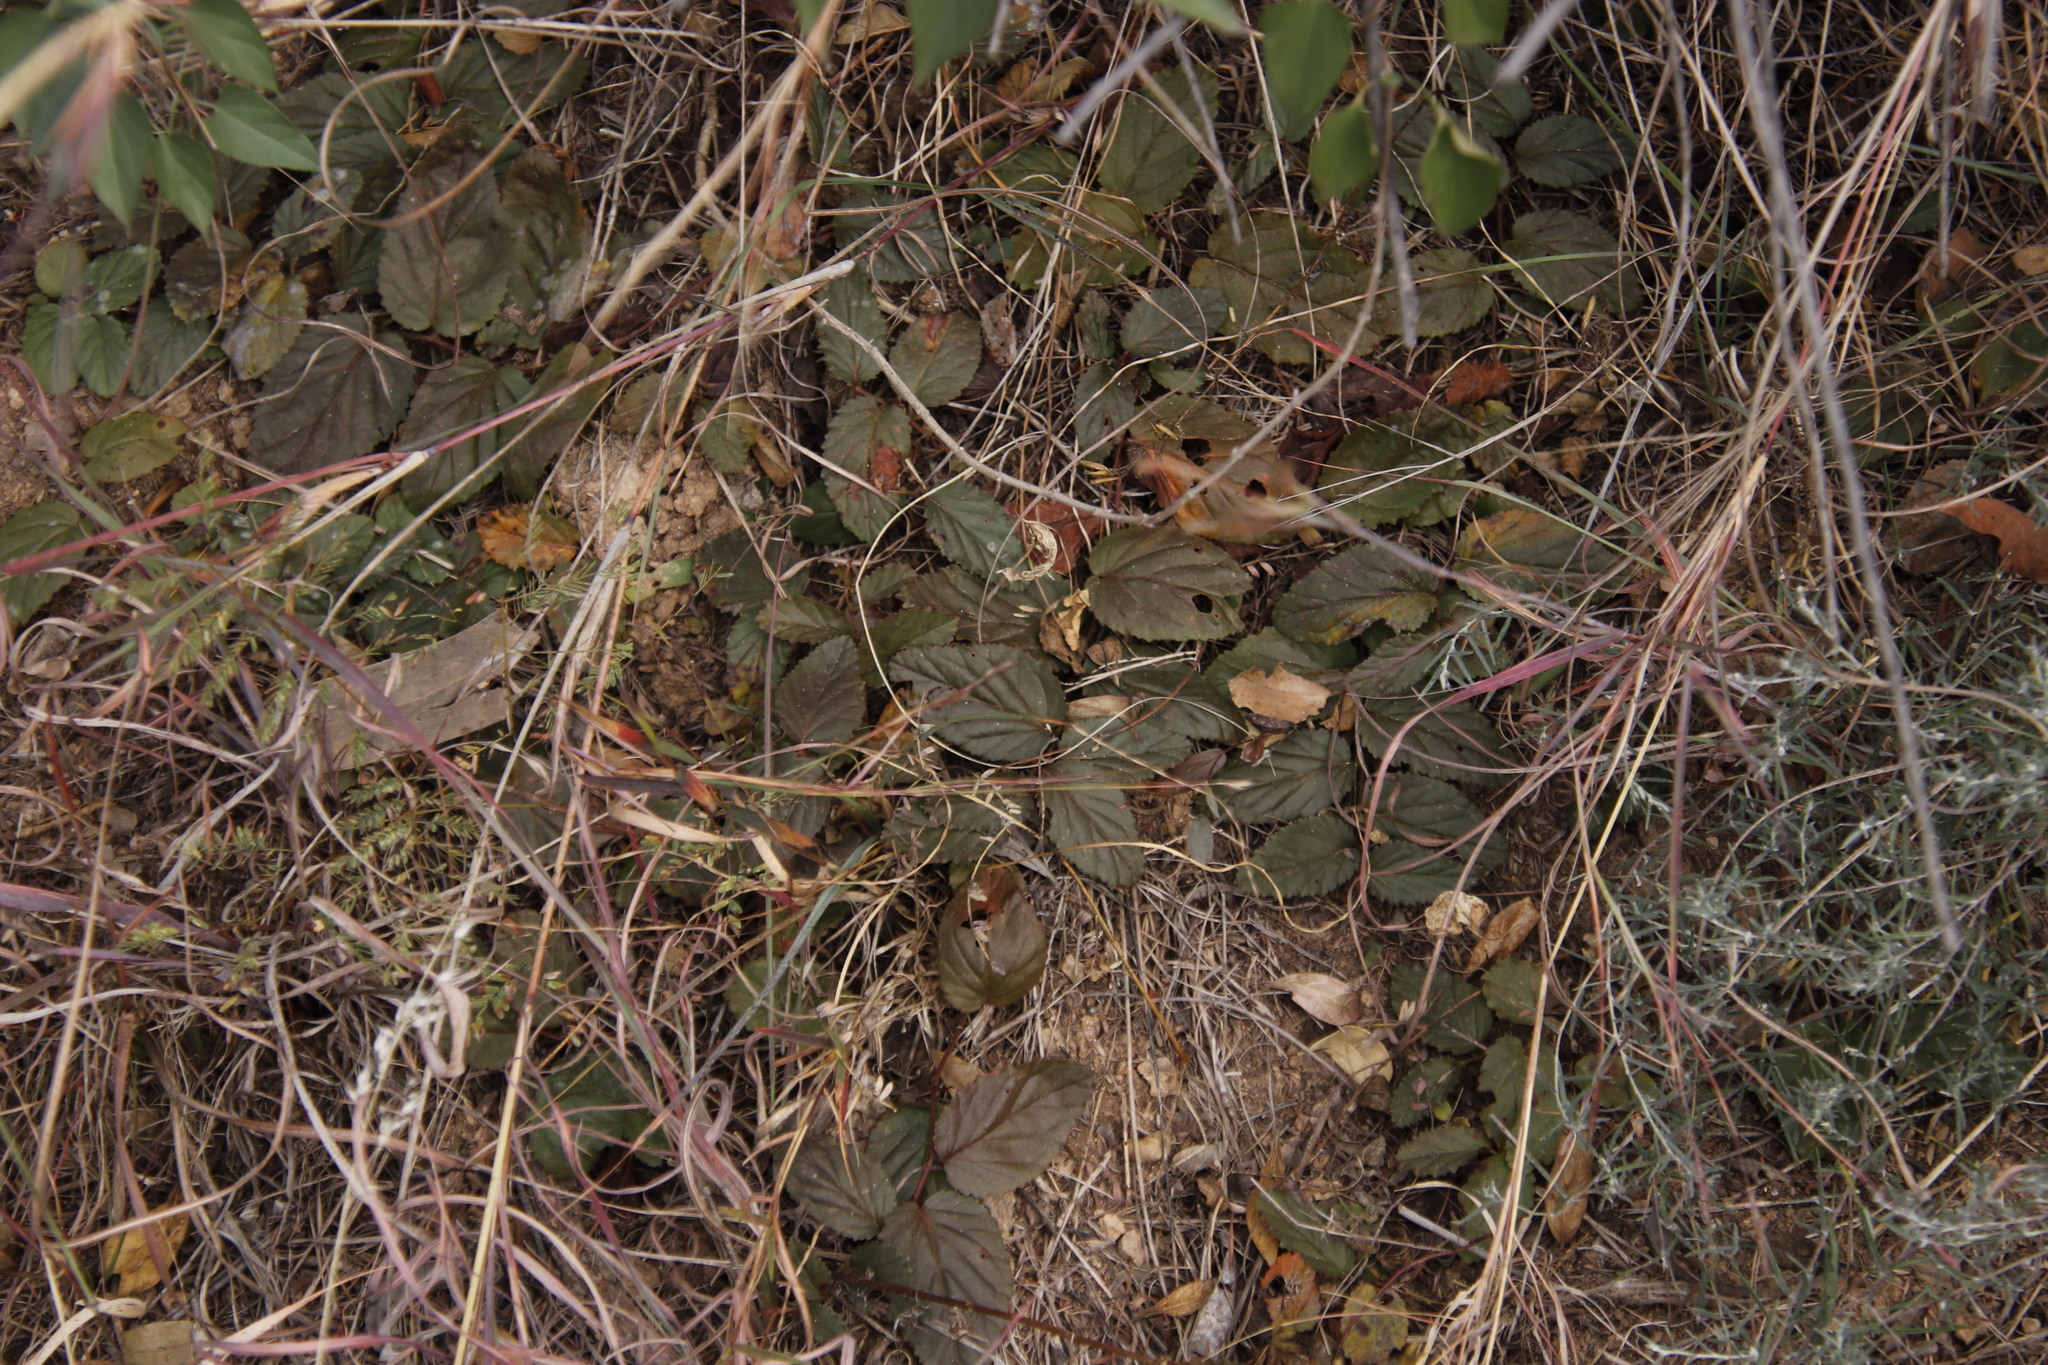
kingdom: Plantae
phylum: Tracheophyta
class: Magnoliopsida
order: Malvales
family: Malvaceae
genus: Hermannia
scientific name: Hermannia depressa
